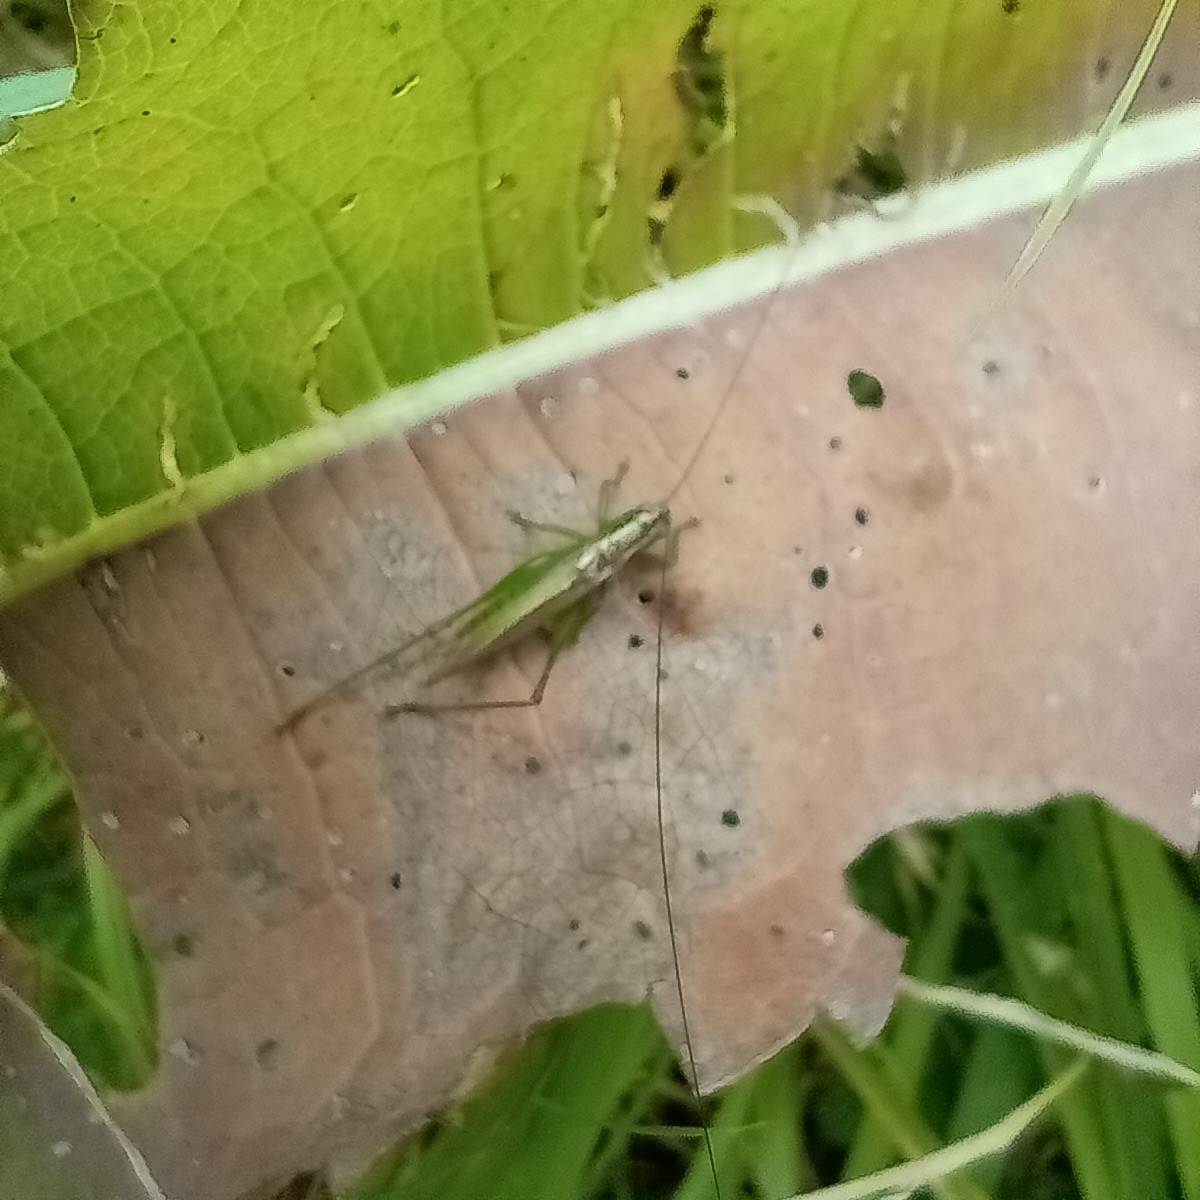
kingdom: Animalia
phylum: Arthropoda
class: Insecta
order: Orthoptera
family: Tettigoniidae
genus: Conocephalus
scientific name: Conocephalus fuscus
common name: Long-winged conehead
